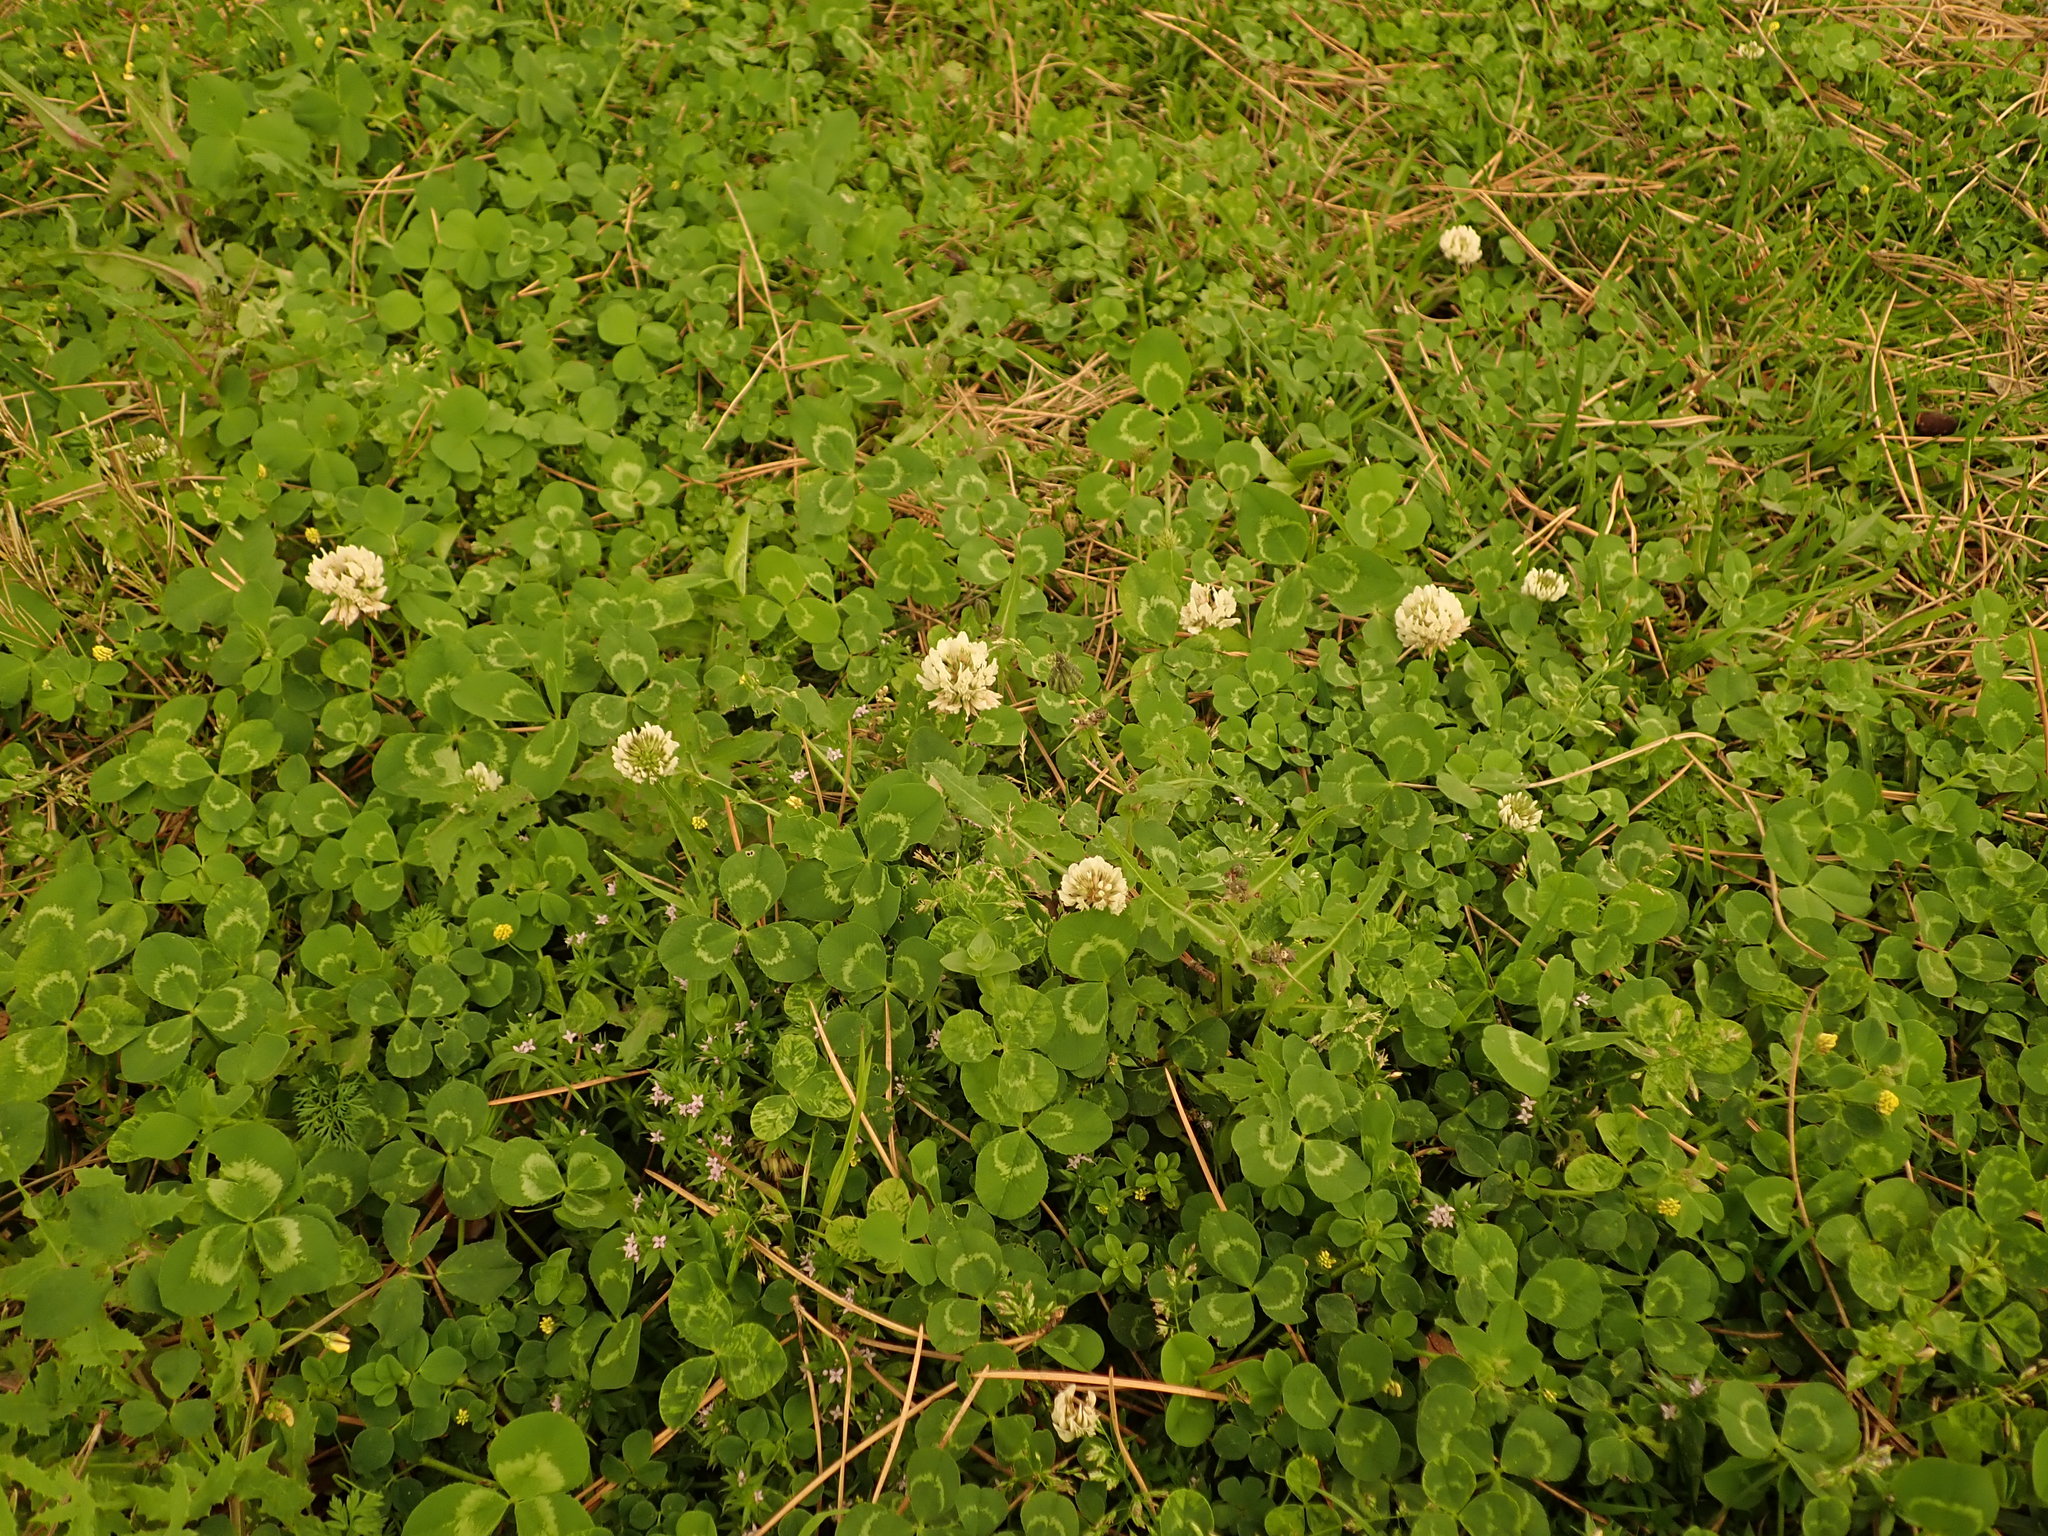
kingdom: Plantae
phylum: Tracheophyta
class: Magnoliopsida
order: Fabales
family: Fabaceae
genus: Trifolium
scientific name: Trifolium repens
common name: White clover
